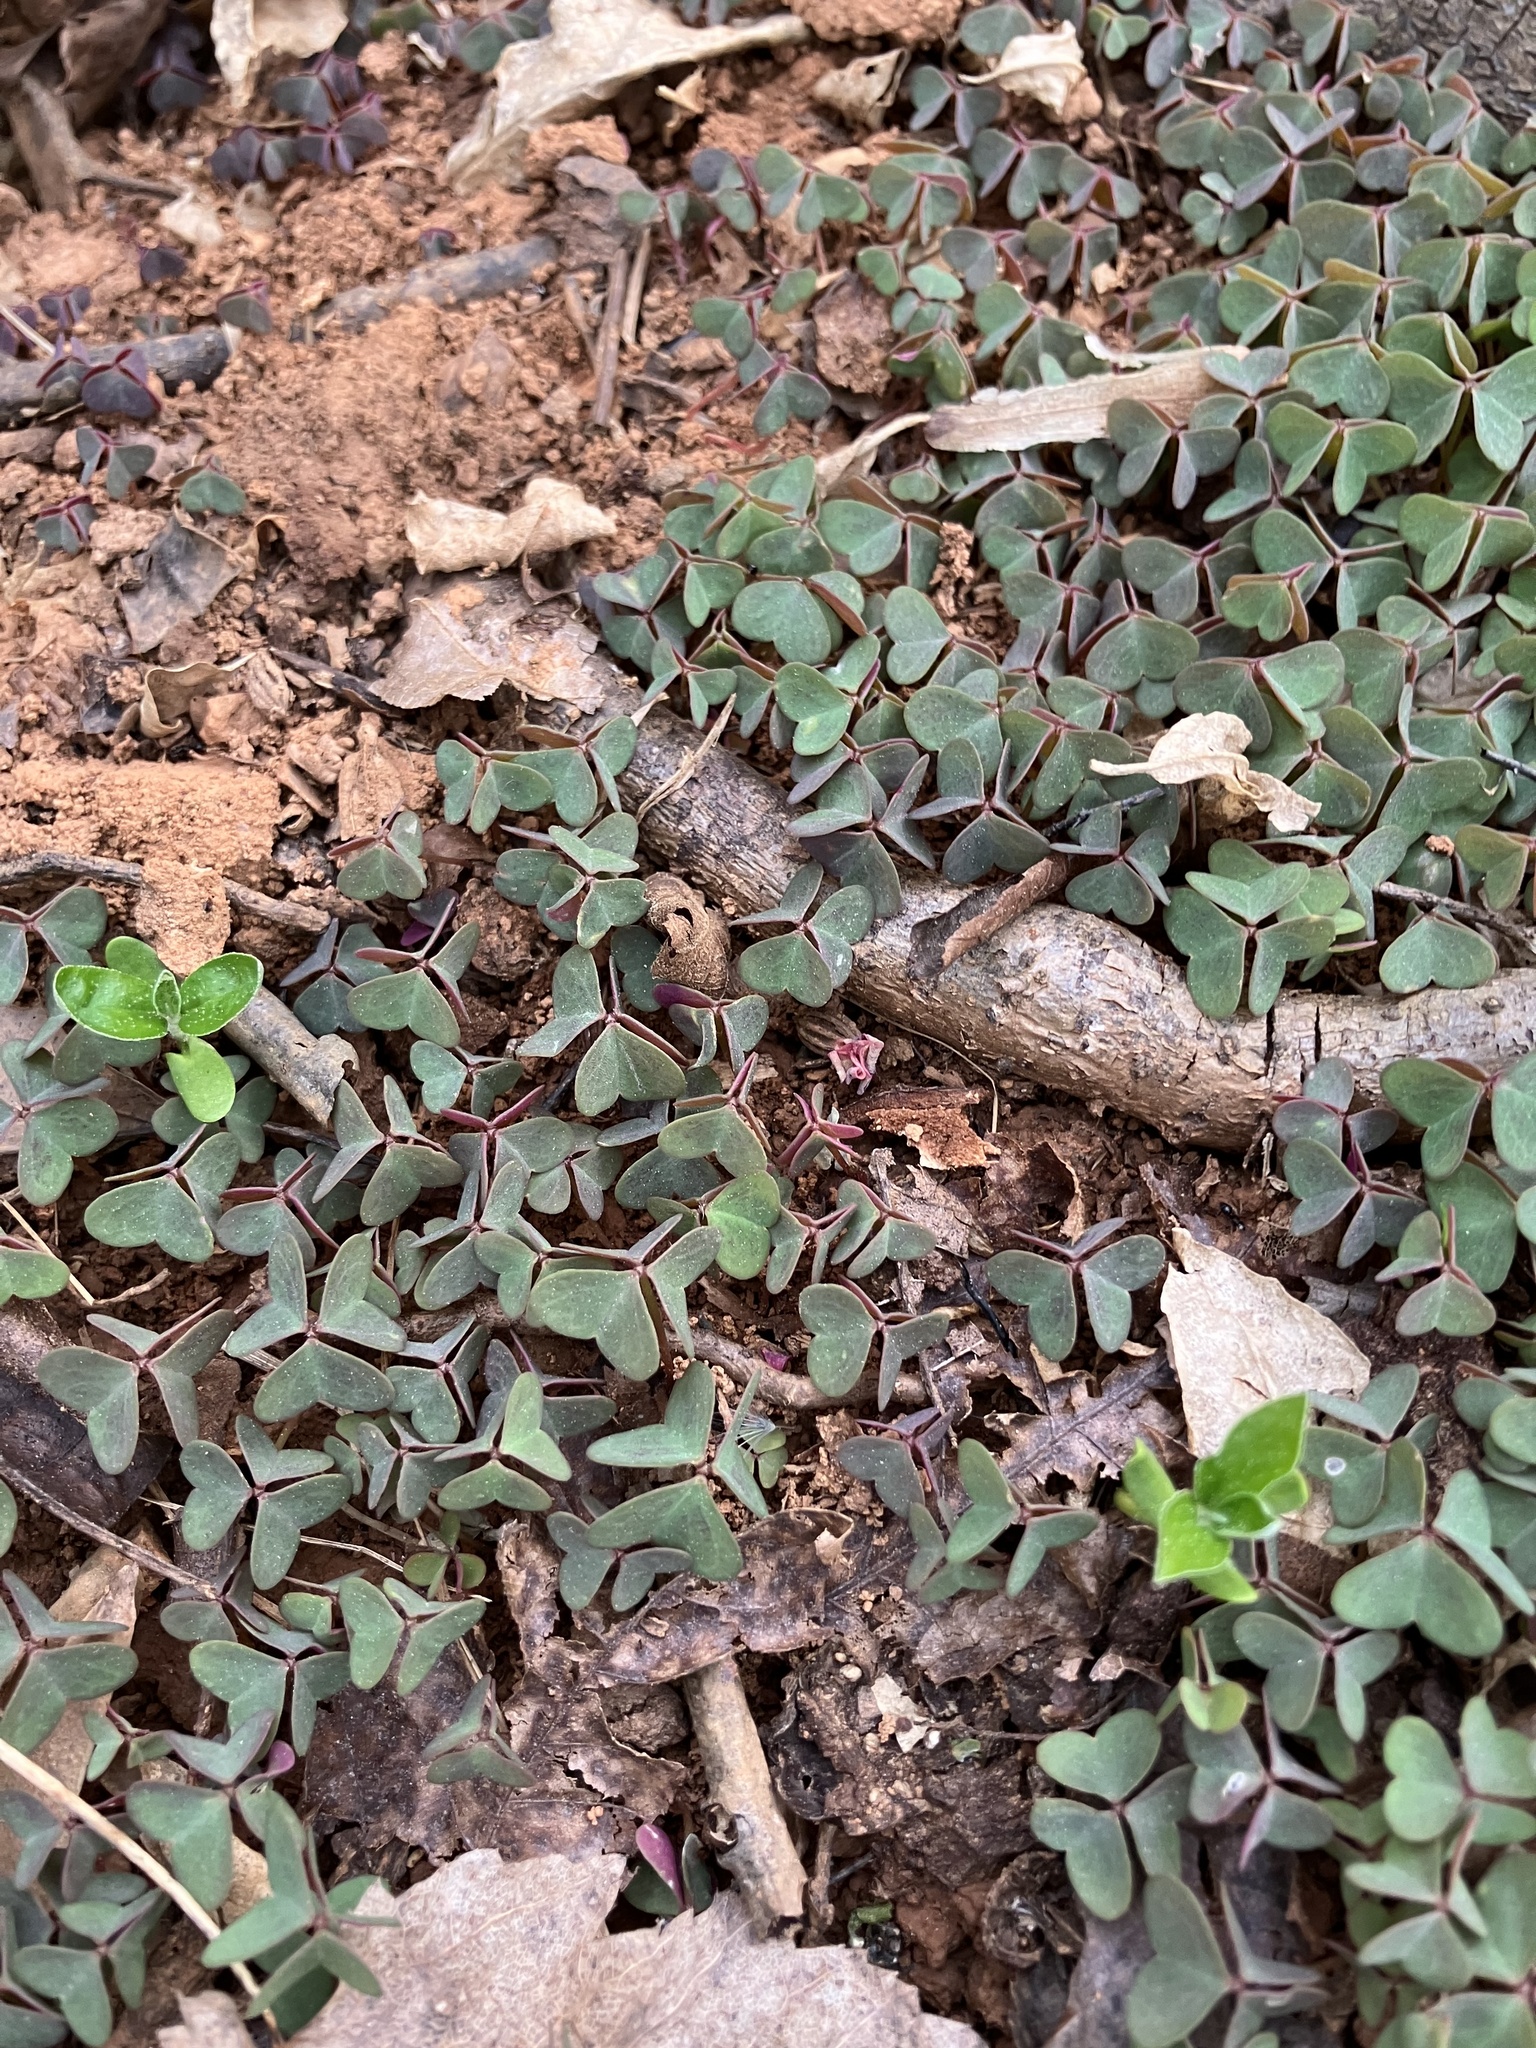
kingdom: Plantae
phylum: Tracheophyta
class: Magnoliopsida
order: Oxalidales
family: Oxalidaceae
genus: Oxalis
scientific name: Oxalis violacea
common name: Violet wood-sorrel
